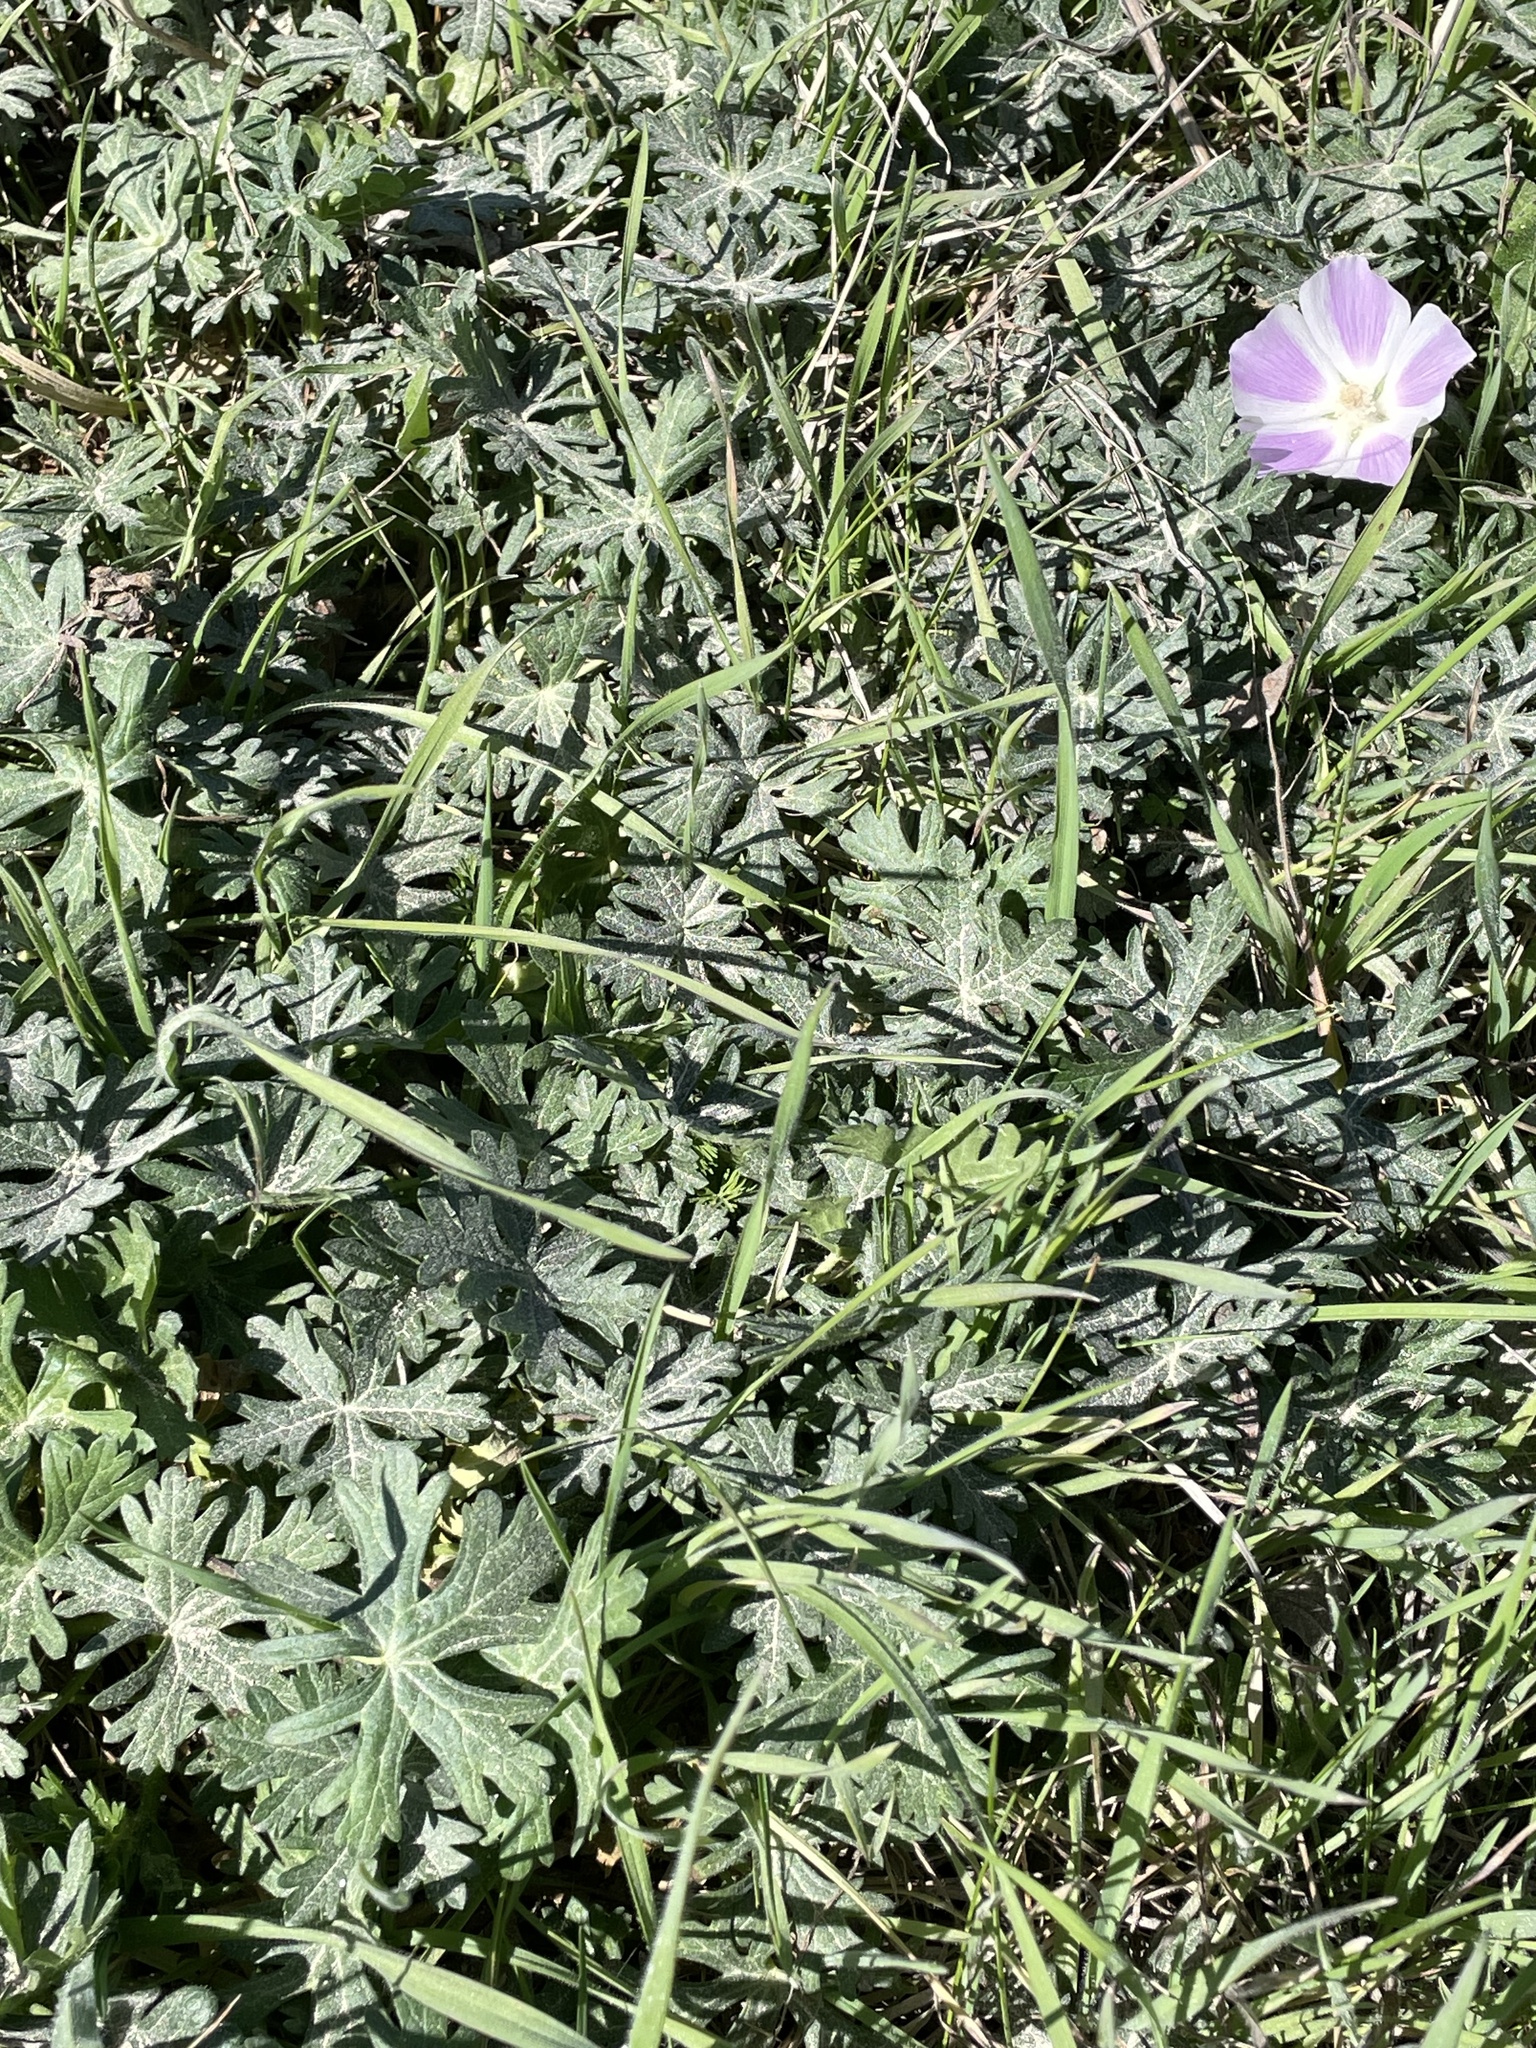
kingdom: Plantae
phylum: Tracheophyta
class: Magnoliopsida
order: Malvales
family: Malvaceae
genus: Callirhoe
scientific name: Callirhoe involucrata
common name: Purple poppy-mallow
